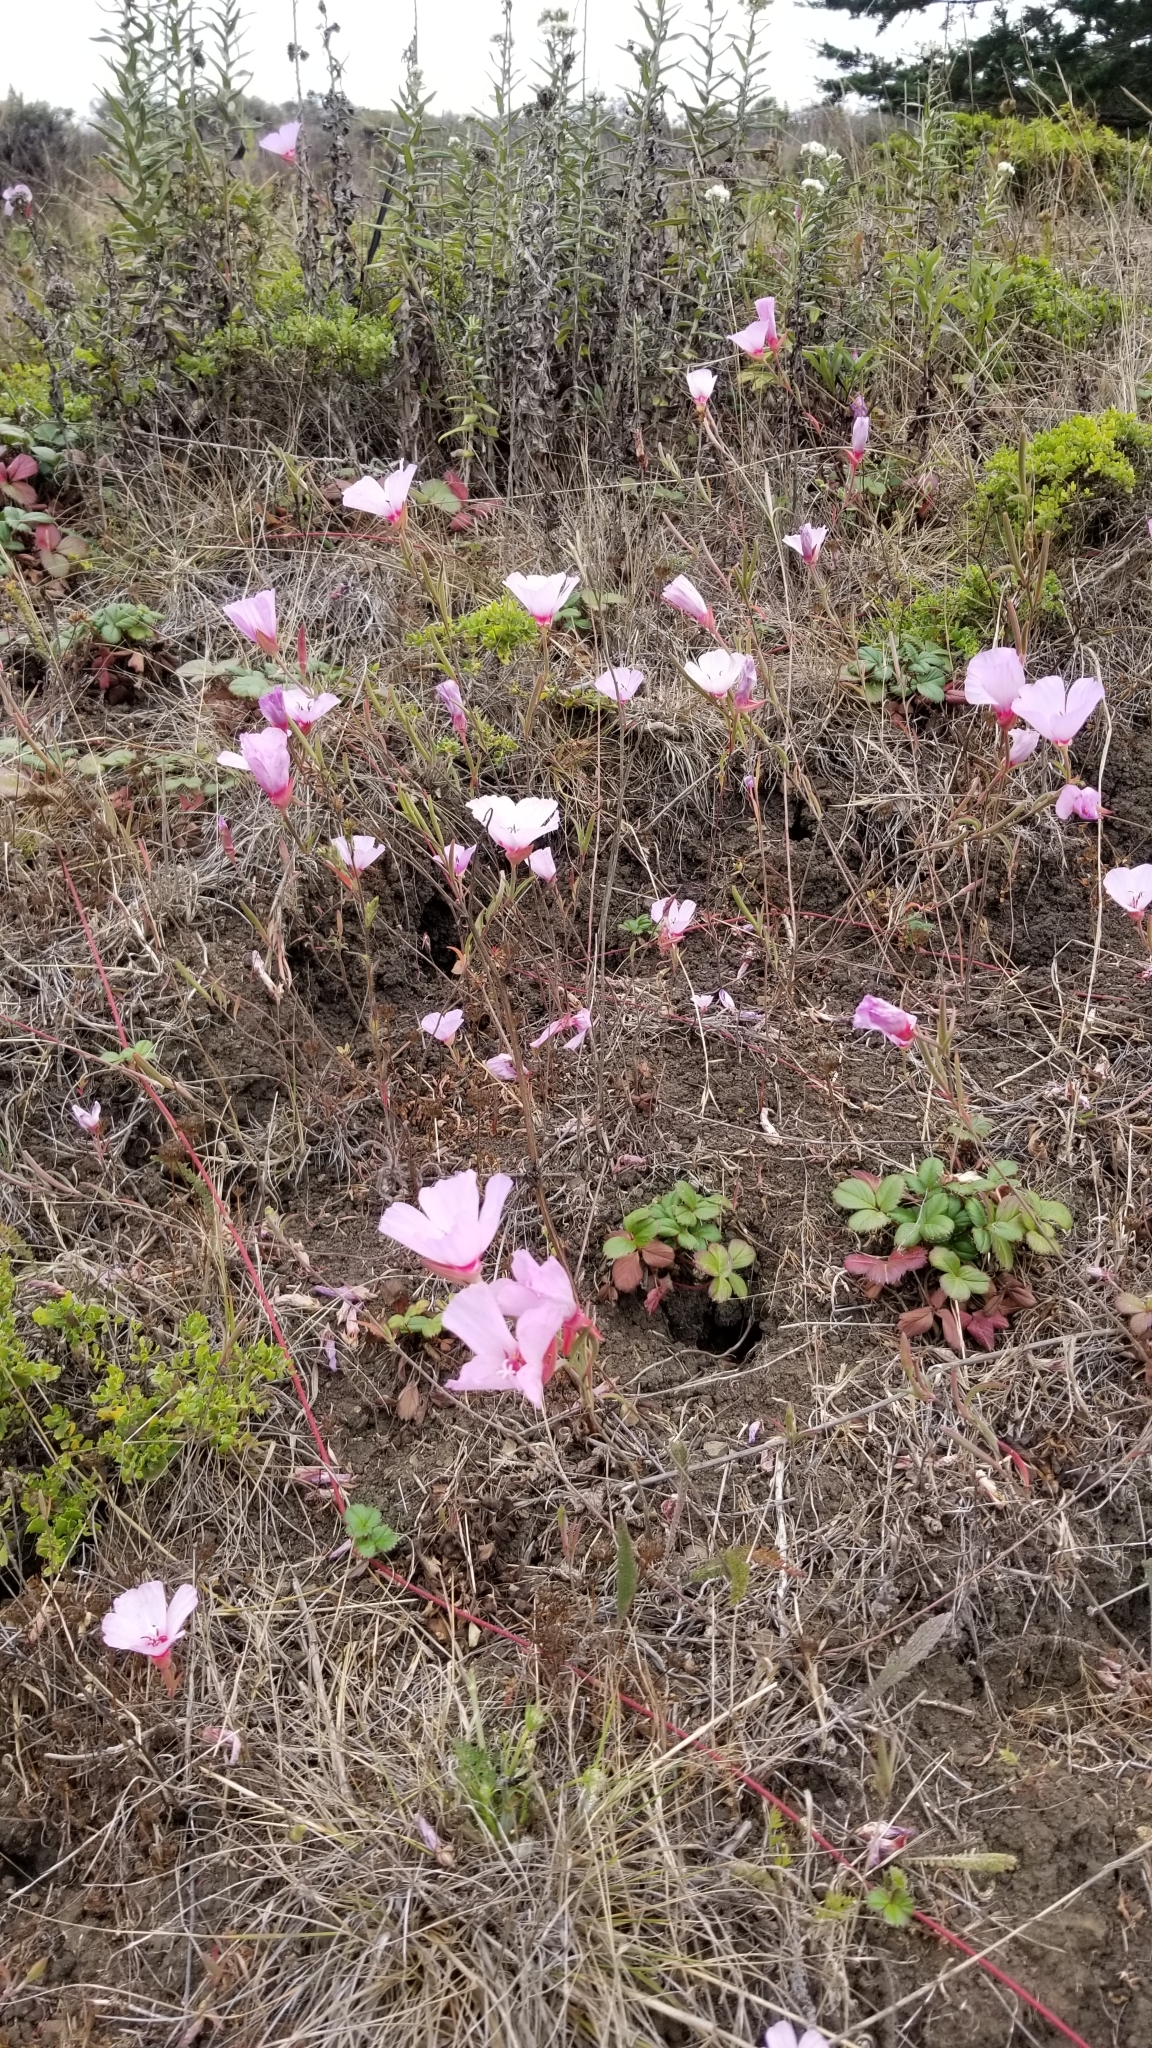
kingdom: Plantae
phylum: Tracheophyta
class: Magnoliopsida
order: Myrtales
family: Onagraceae
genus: Clarkia
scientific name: Clarkia rubicunda
